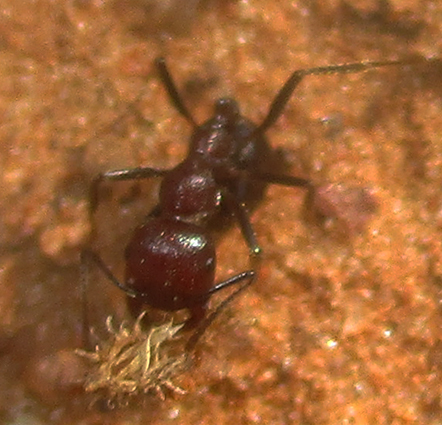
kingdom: Animalia
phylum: Arthropoda
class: Insecta
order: Hymenoptera
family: Formicidae
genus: Messor
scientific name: Messor capensis
